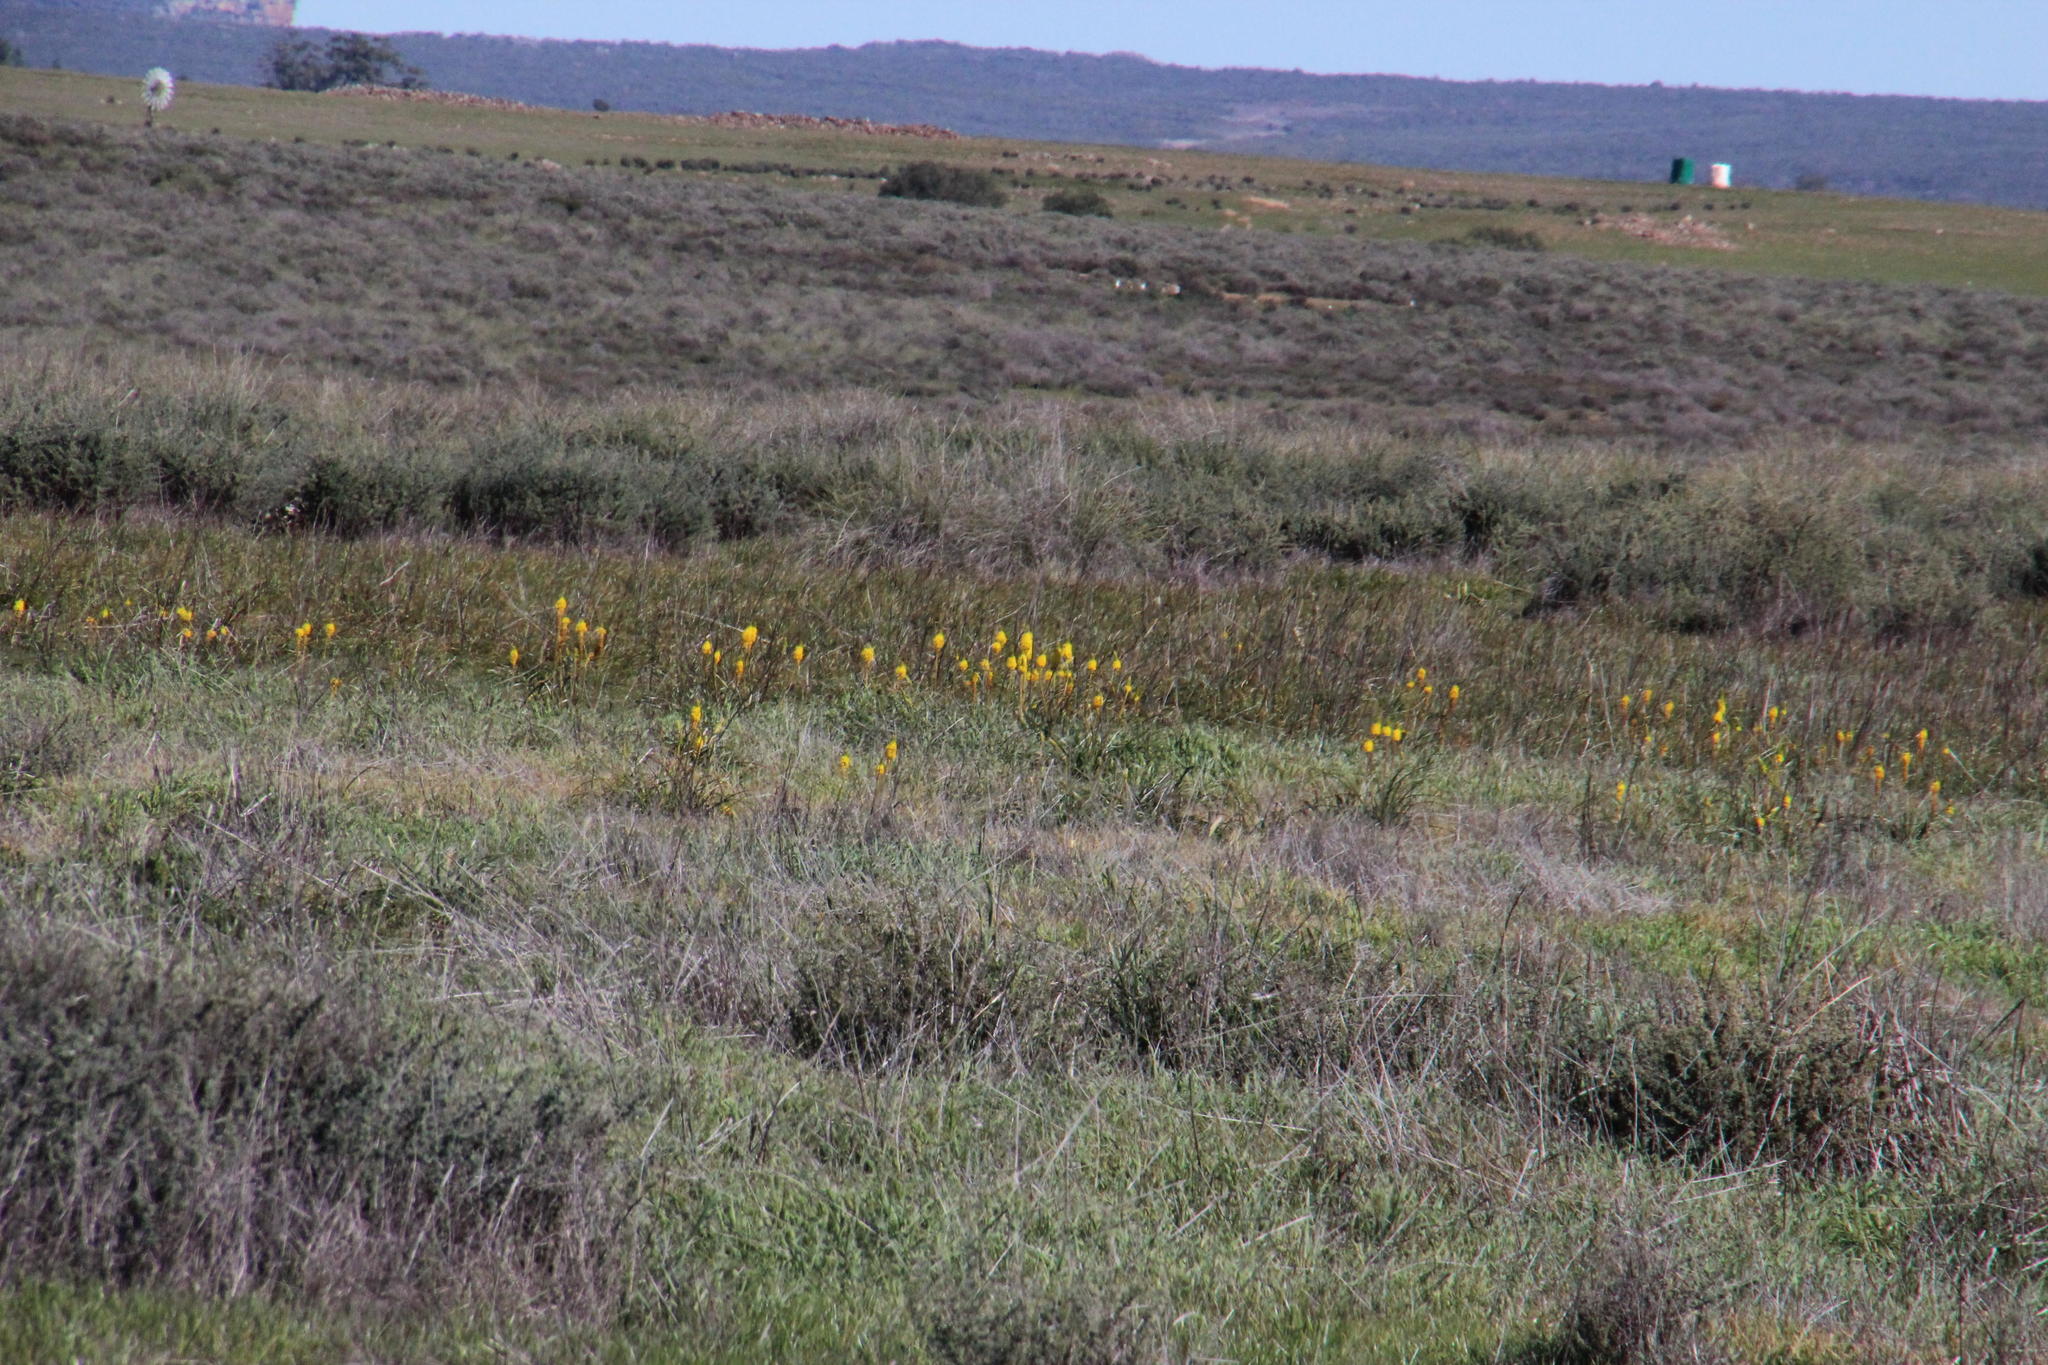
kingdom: Plantae
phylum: Tracheophyta
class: Liliopsida
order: Asparagales
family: Asphodelaceae
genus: Bulbinella
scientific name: Bulbinella latifolia
